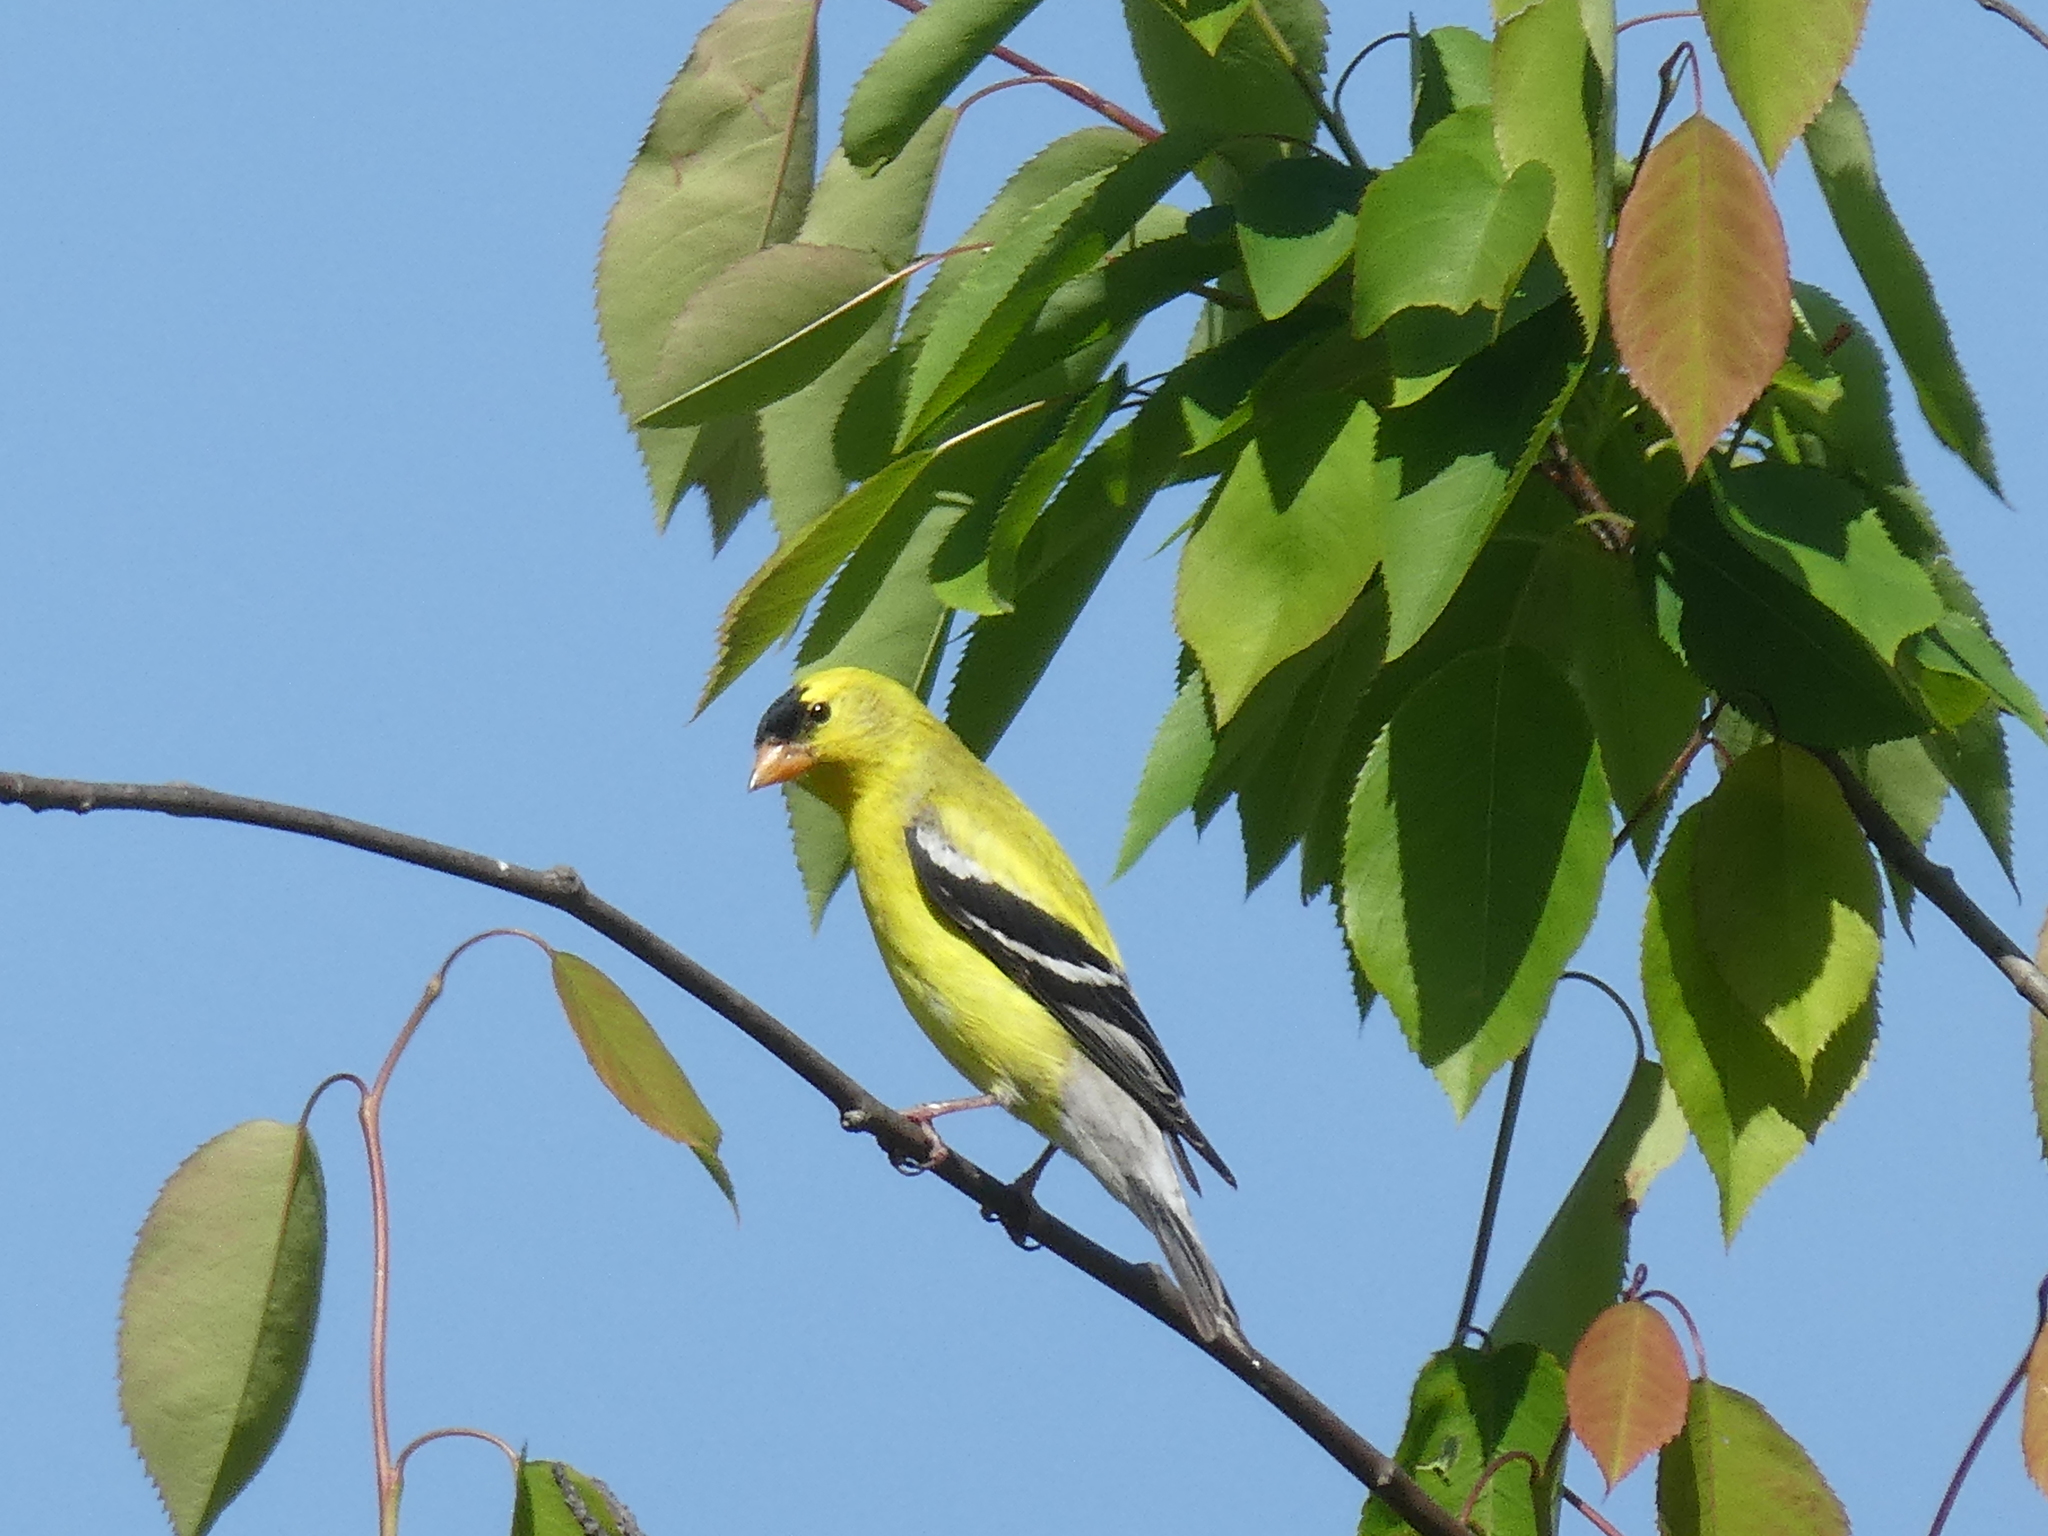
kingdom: Animalia
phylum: Chordata
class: Aves
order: Passeriformes
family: Fringillidae
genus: Spinus
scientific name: Spinus tristis
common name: American goldfinch
